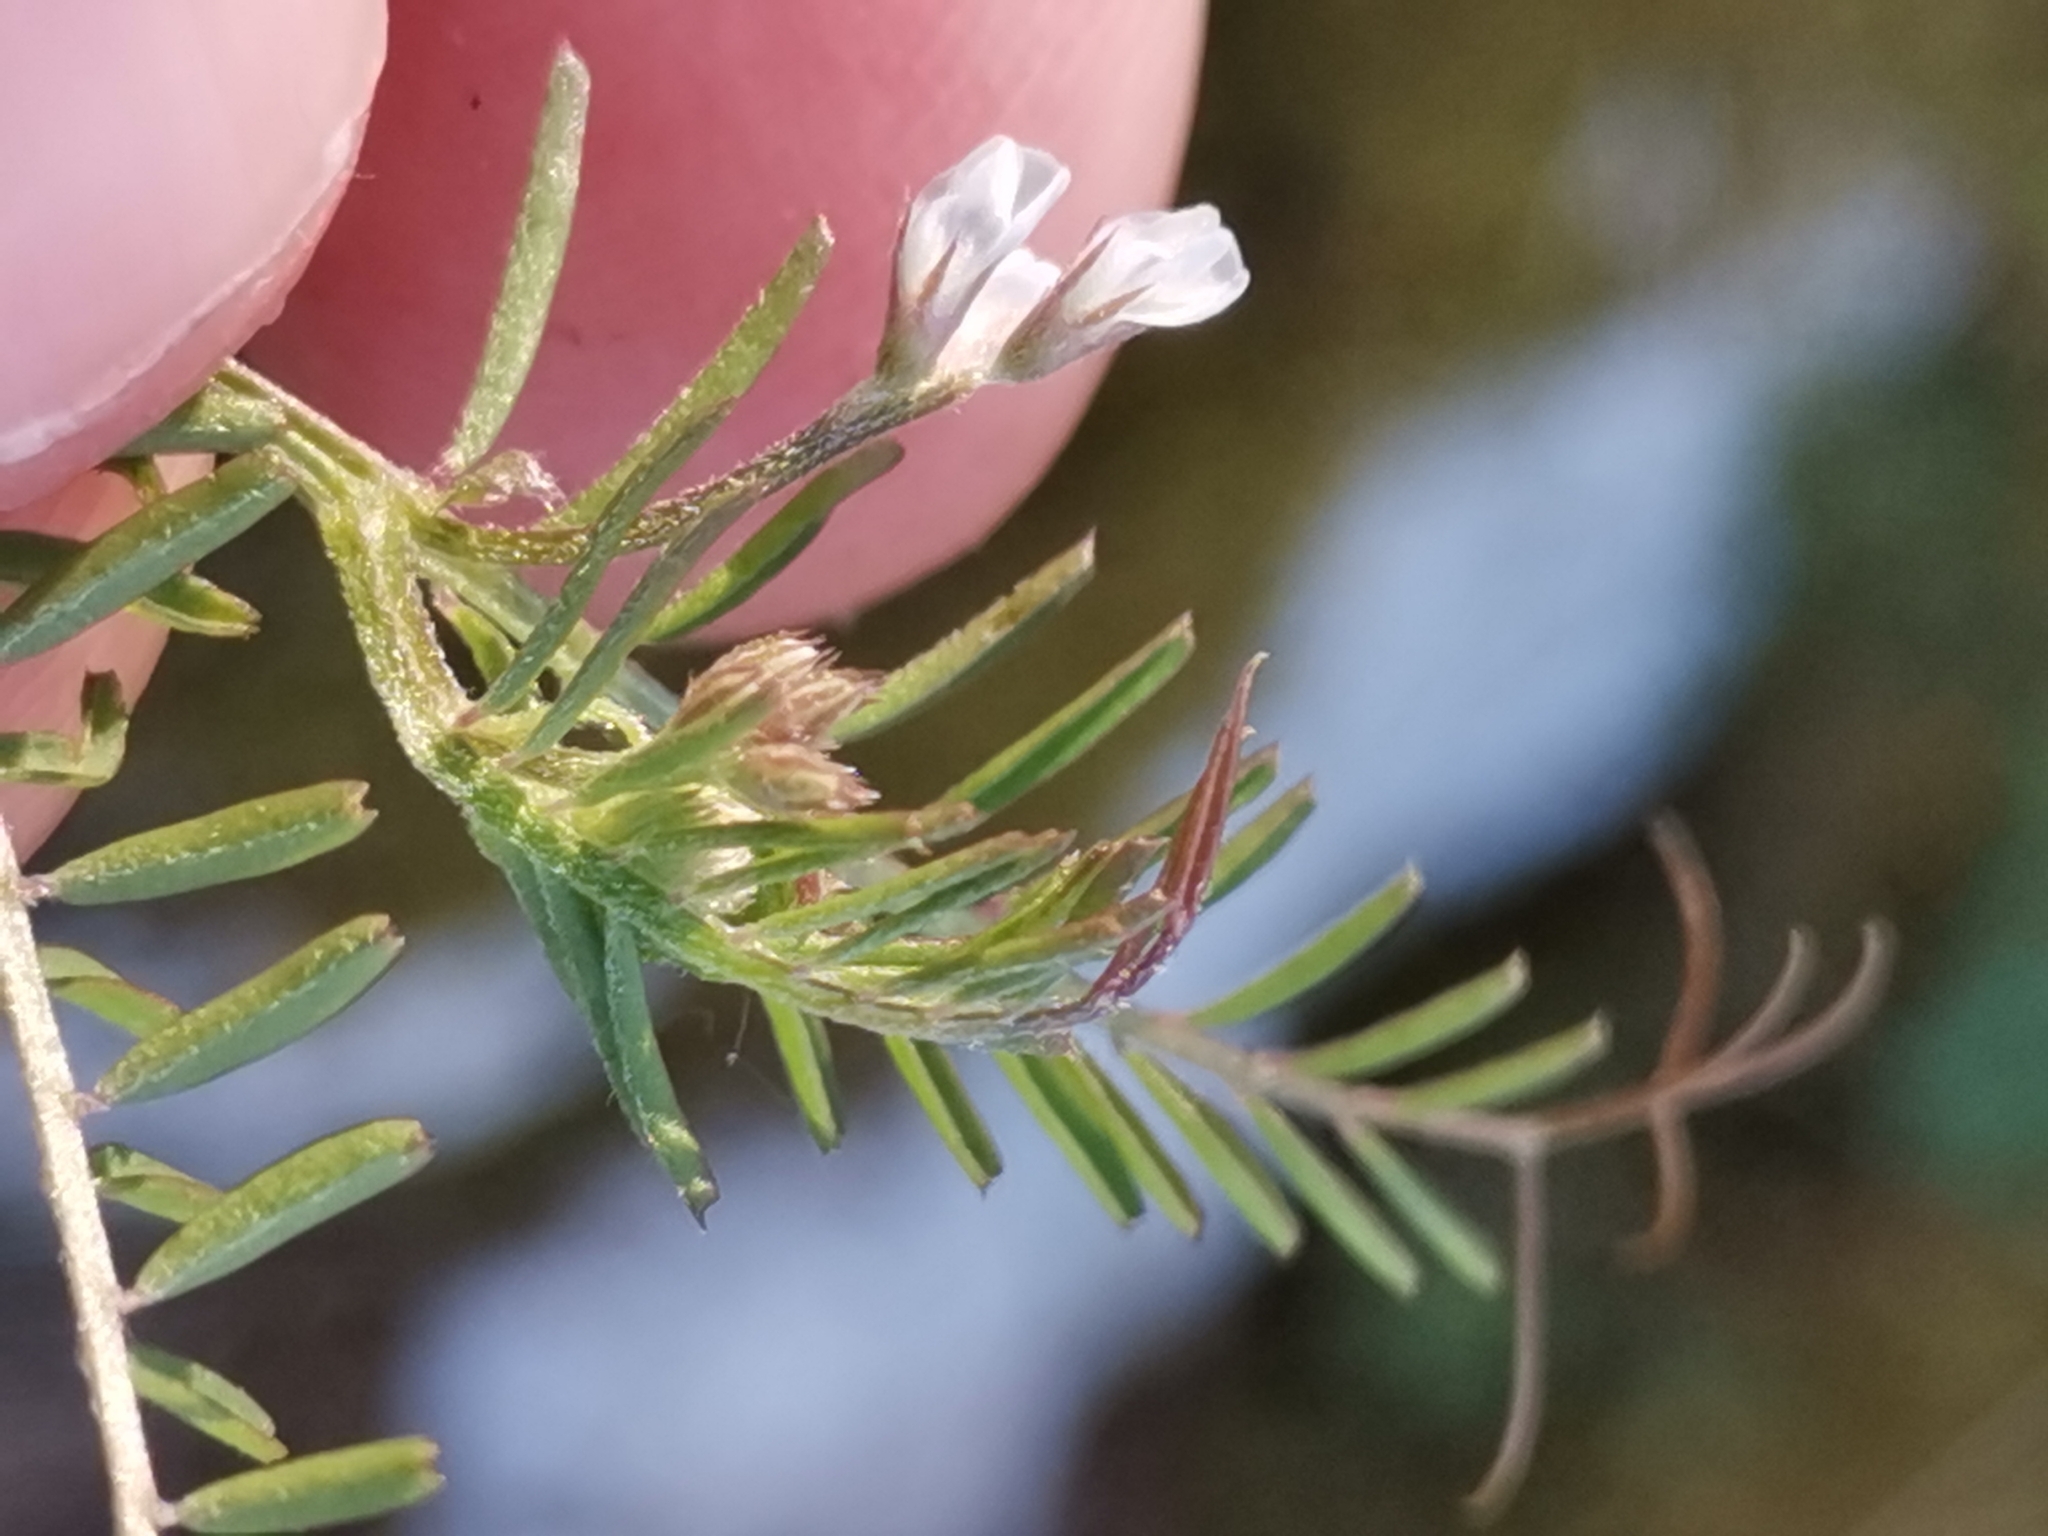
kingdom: Plantae
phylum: Tracheophyta
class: Magnoliopsida
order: Fabales
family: Fabaceae
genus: Vicia
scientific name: Vicia hirsuta
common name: Tiny vetch
